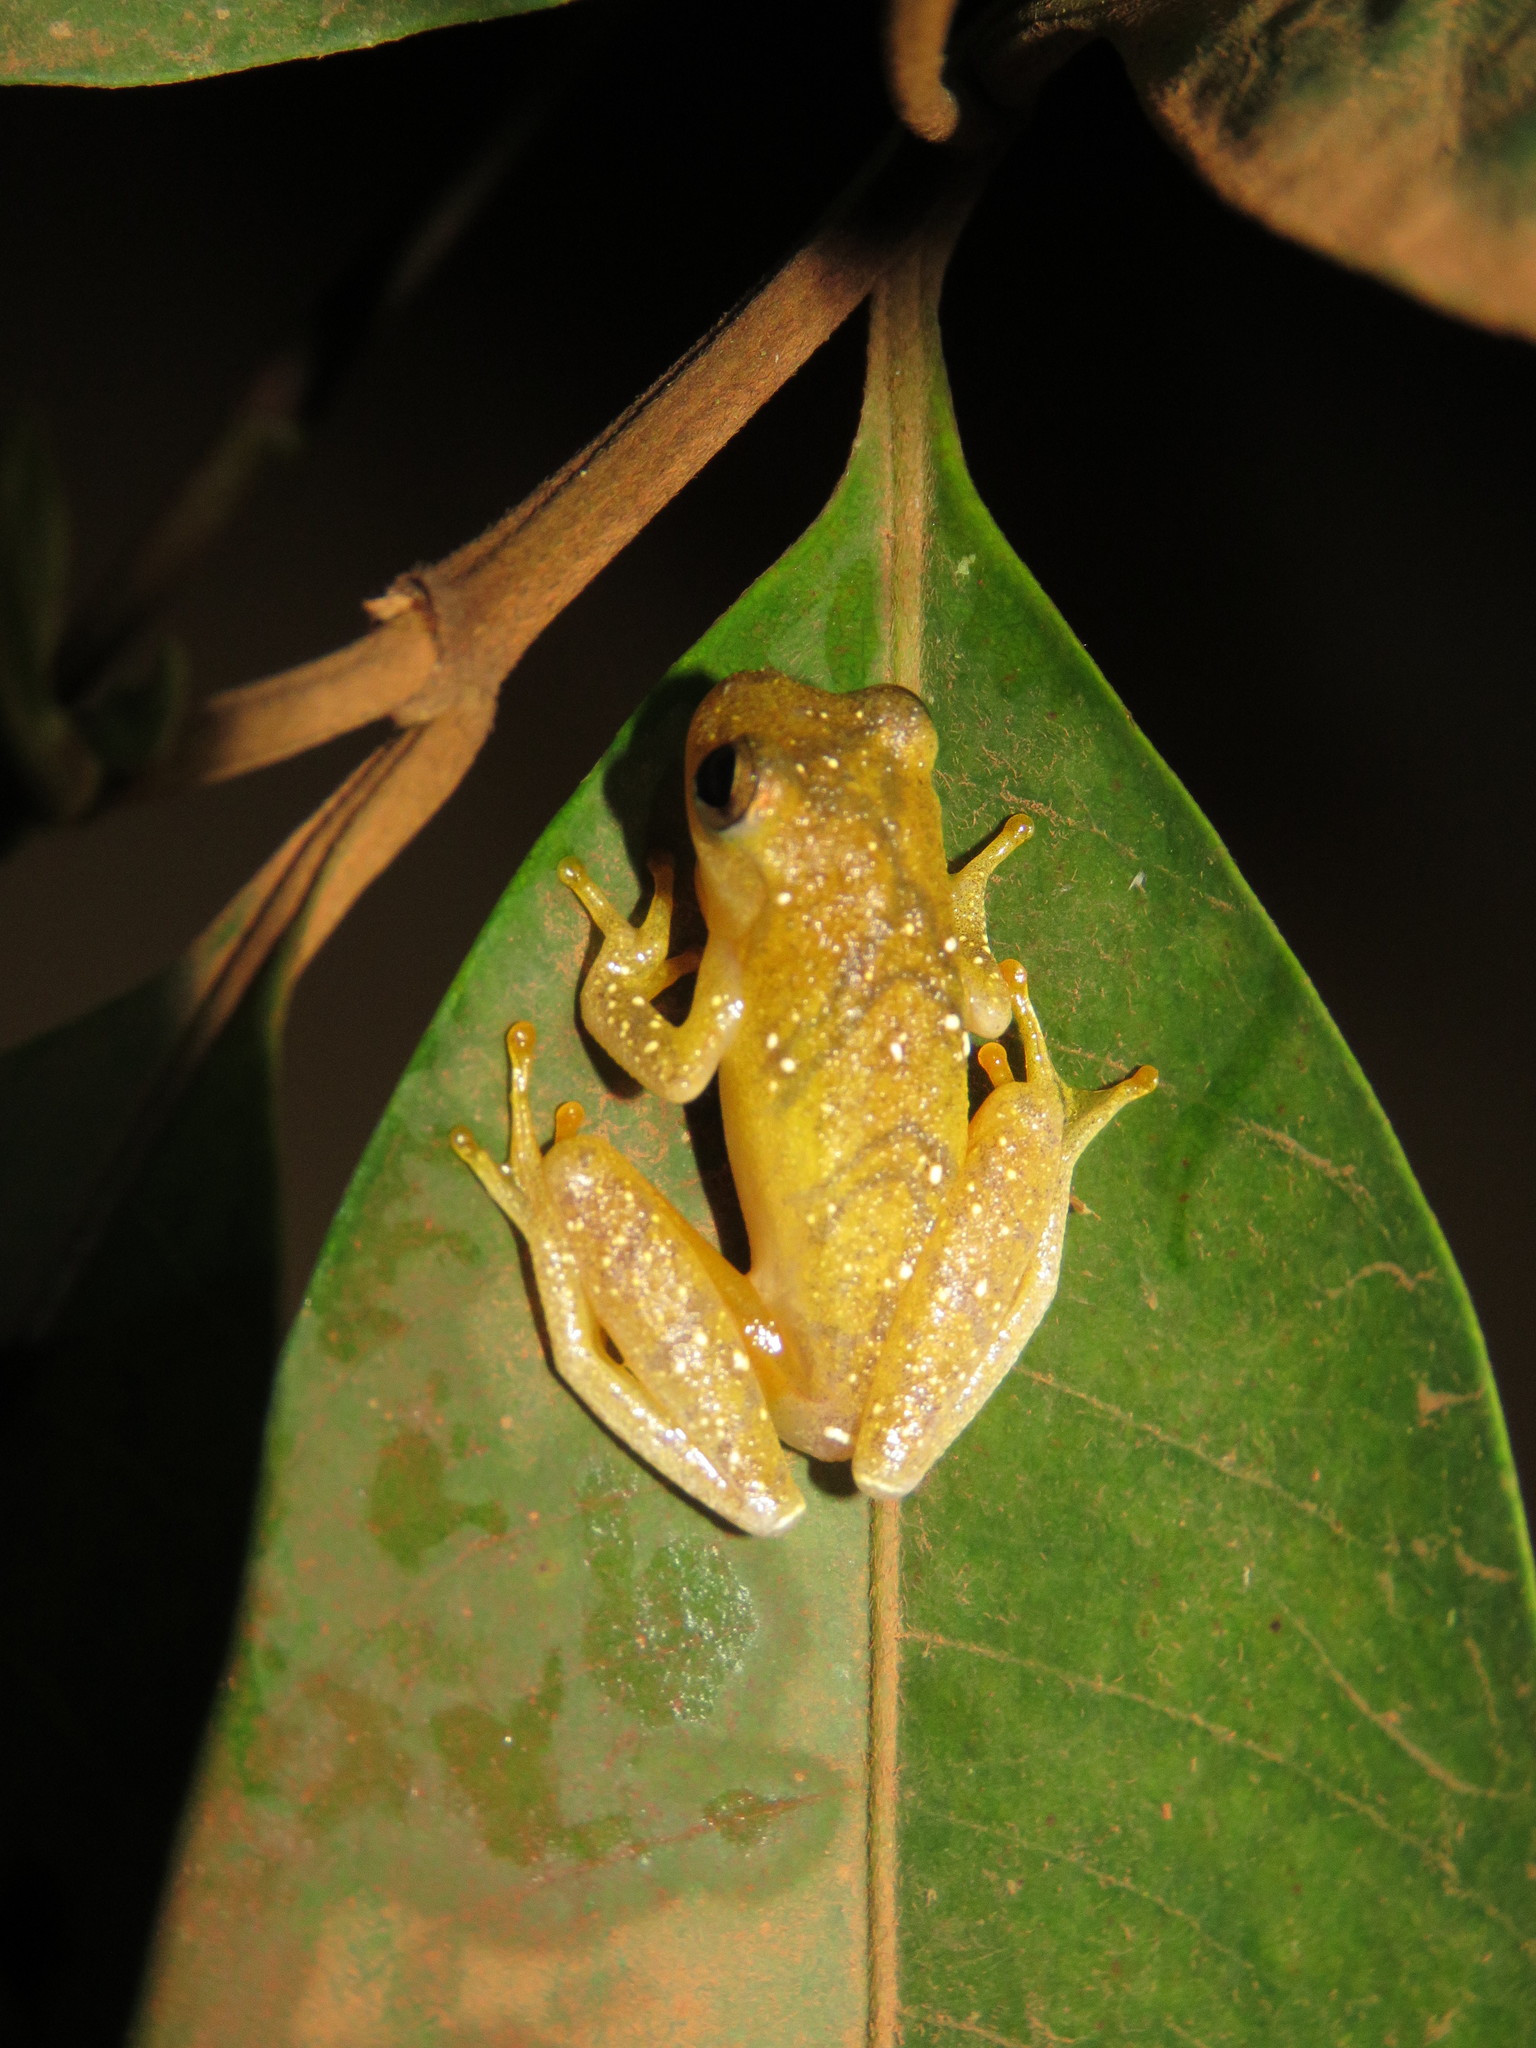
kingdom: Animalia
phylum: Chordata
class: Amphibia
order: Anura
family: Hylidae
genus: Dendropsophus
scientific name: Dendropsophus leali
